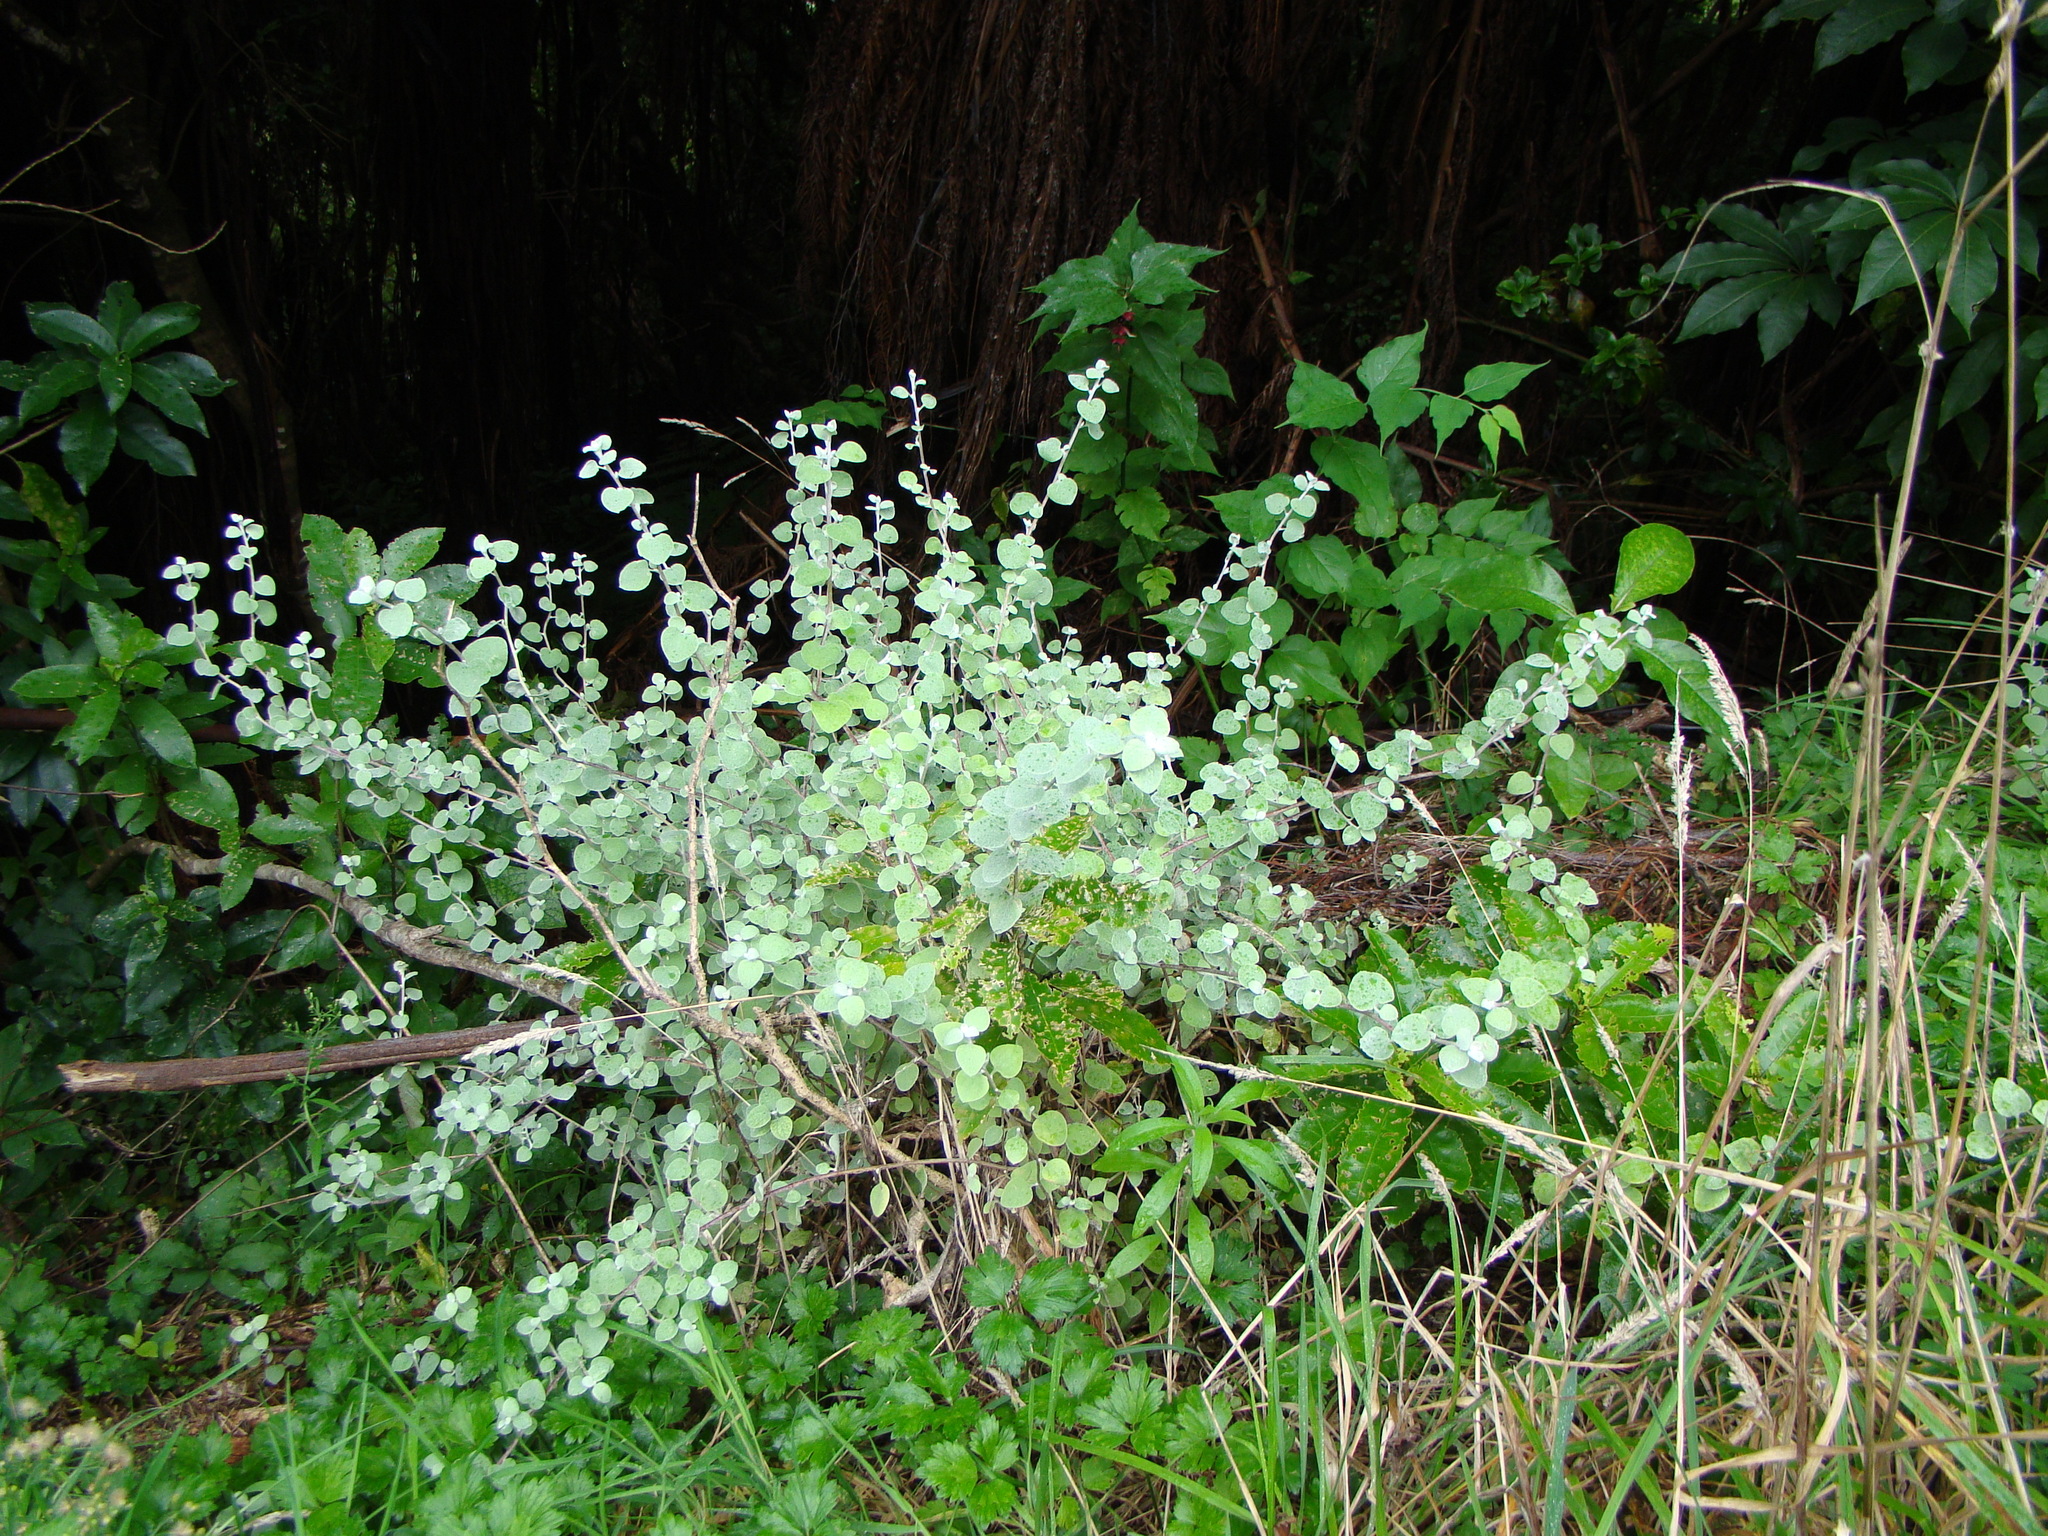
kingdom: Plantae
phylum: Tracheophyta
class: Magnoliopsida
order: Asterales
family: Asteraceae
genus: Helichrysum
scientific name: Helichrysum petiolare
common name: Licorice-plant
